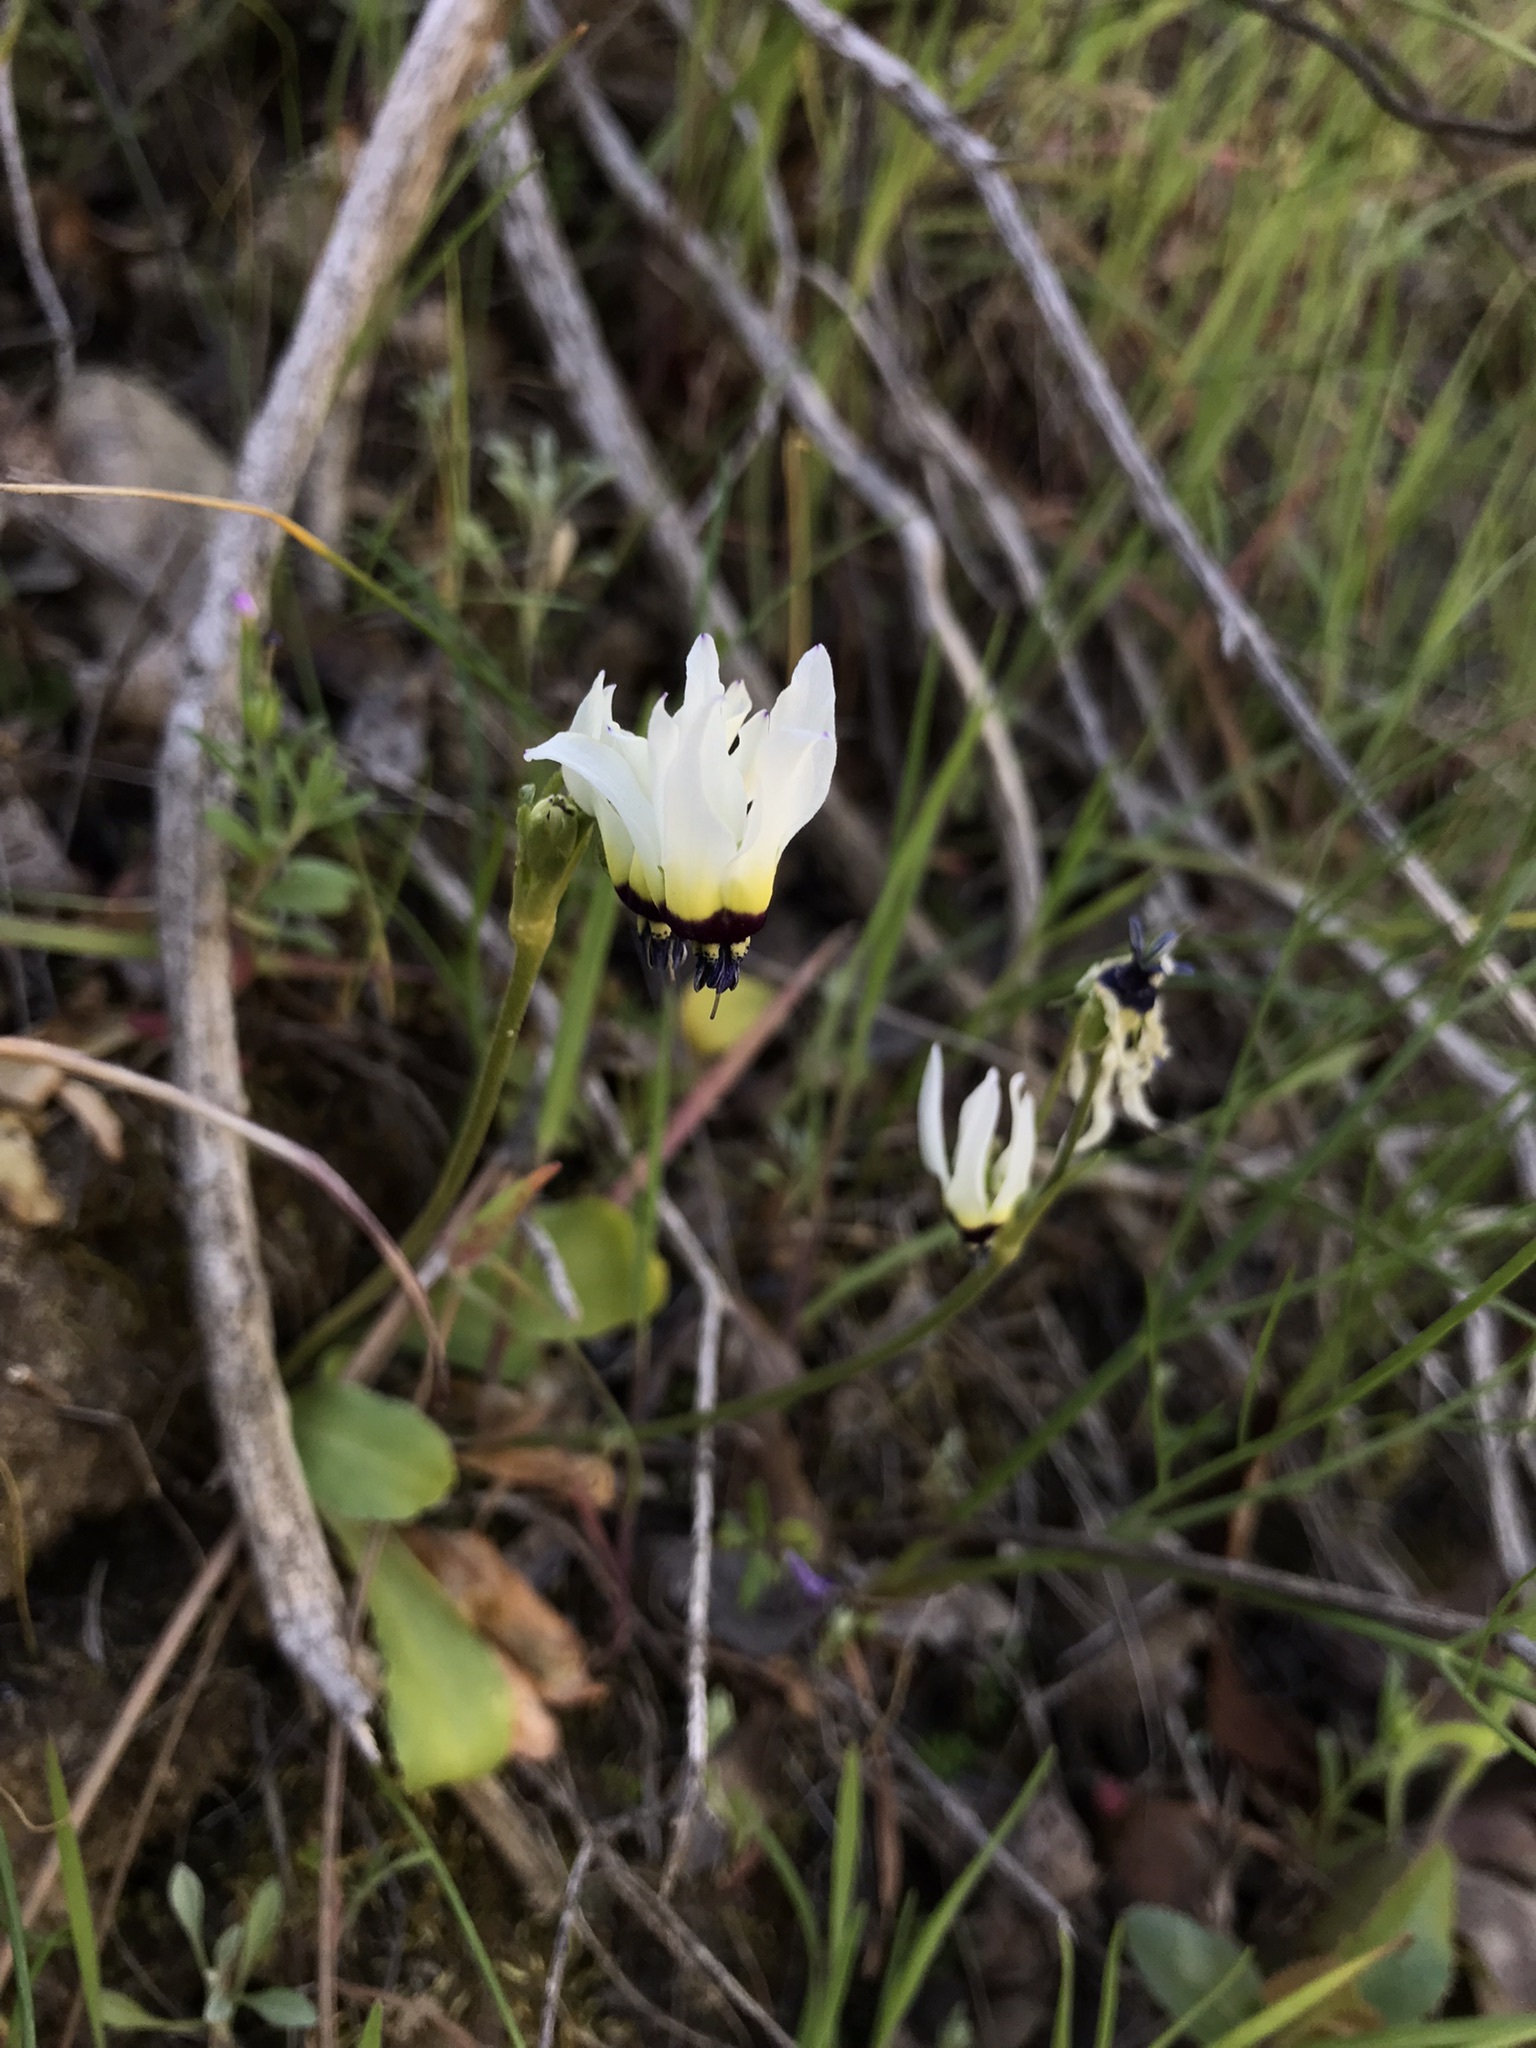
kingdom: Plantae
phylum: Tracheophyta
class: Magnoliopsida
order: Ericales
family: Primulaceae
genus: Dodecatheon
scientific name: Dodecatheon clevelandii
